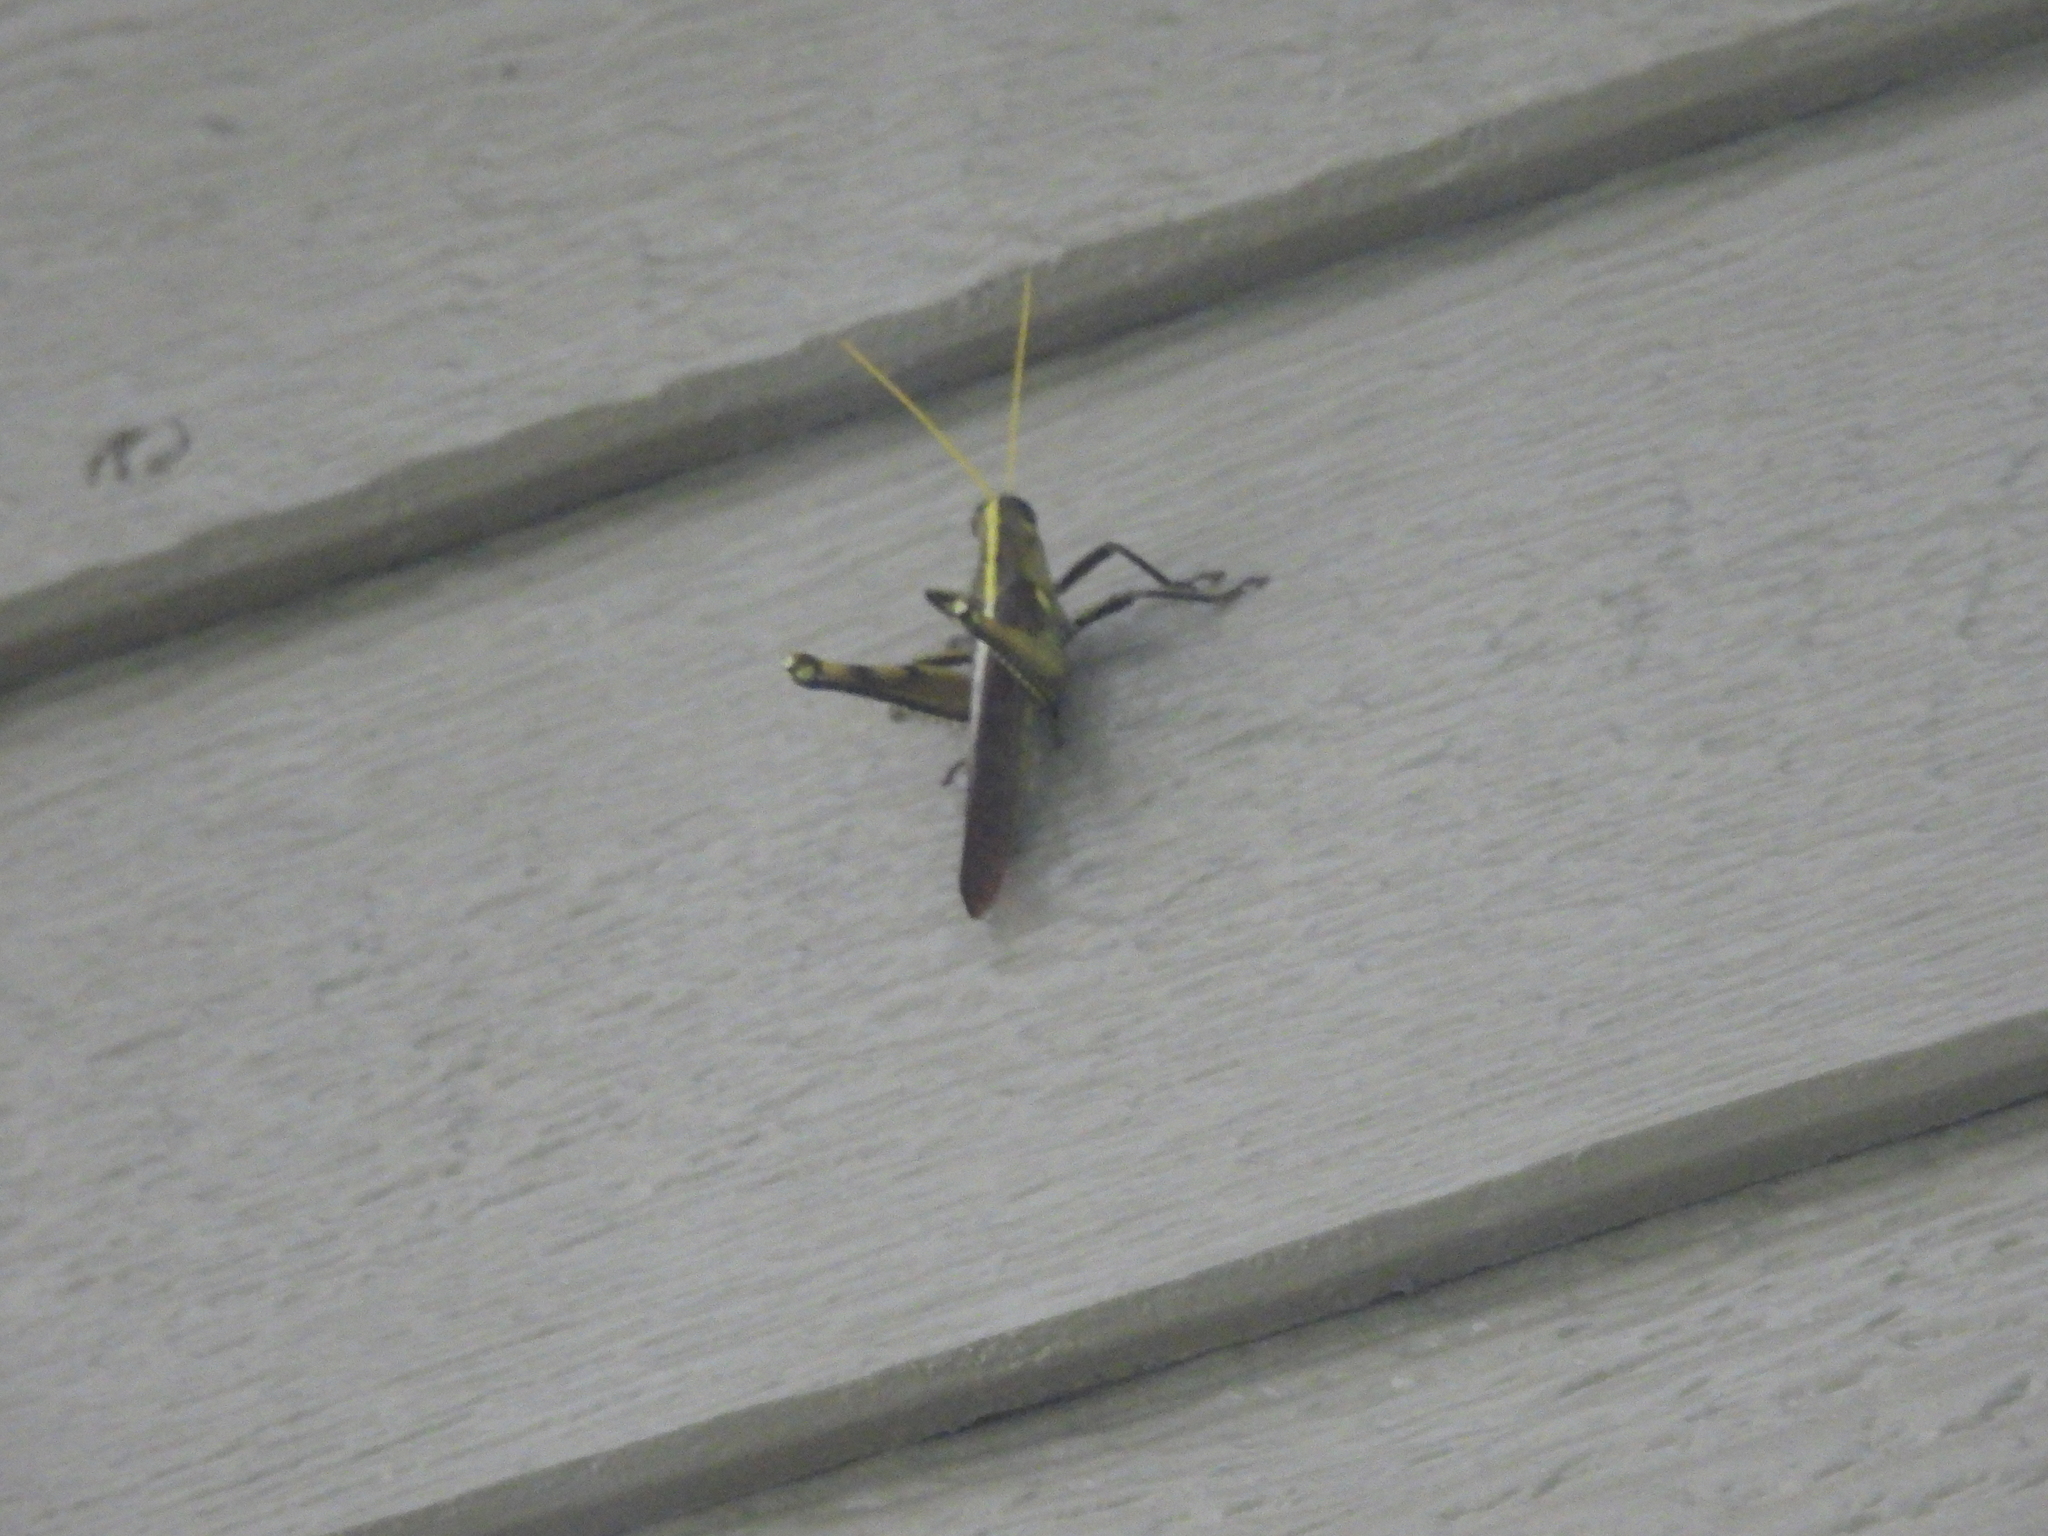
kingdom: Animalia
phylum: Arthropoda
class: Insecta
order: Orthoptera
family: Acrididae
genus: Schistocerca
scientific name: Schistocerca obscura
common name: Obscure bird grasshopper
